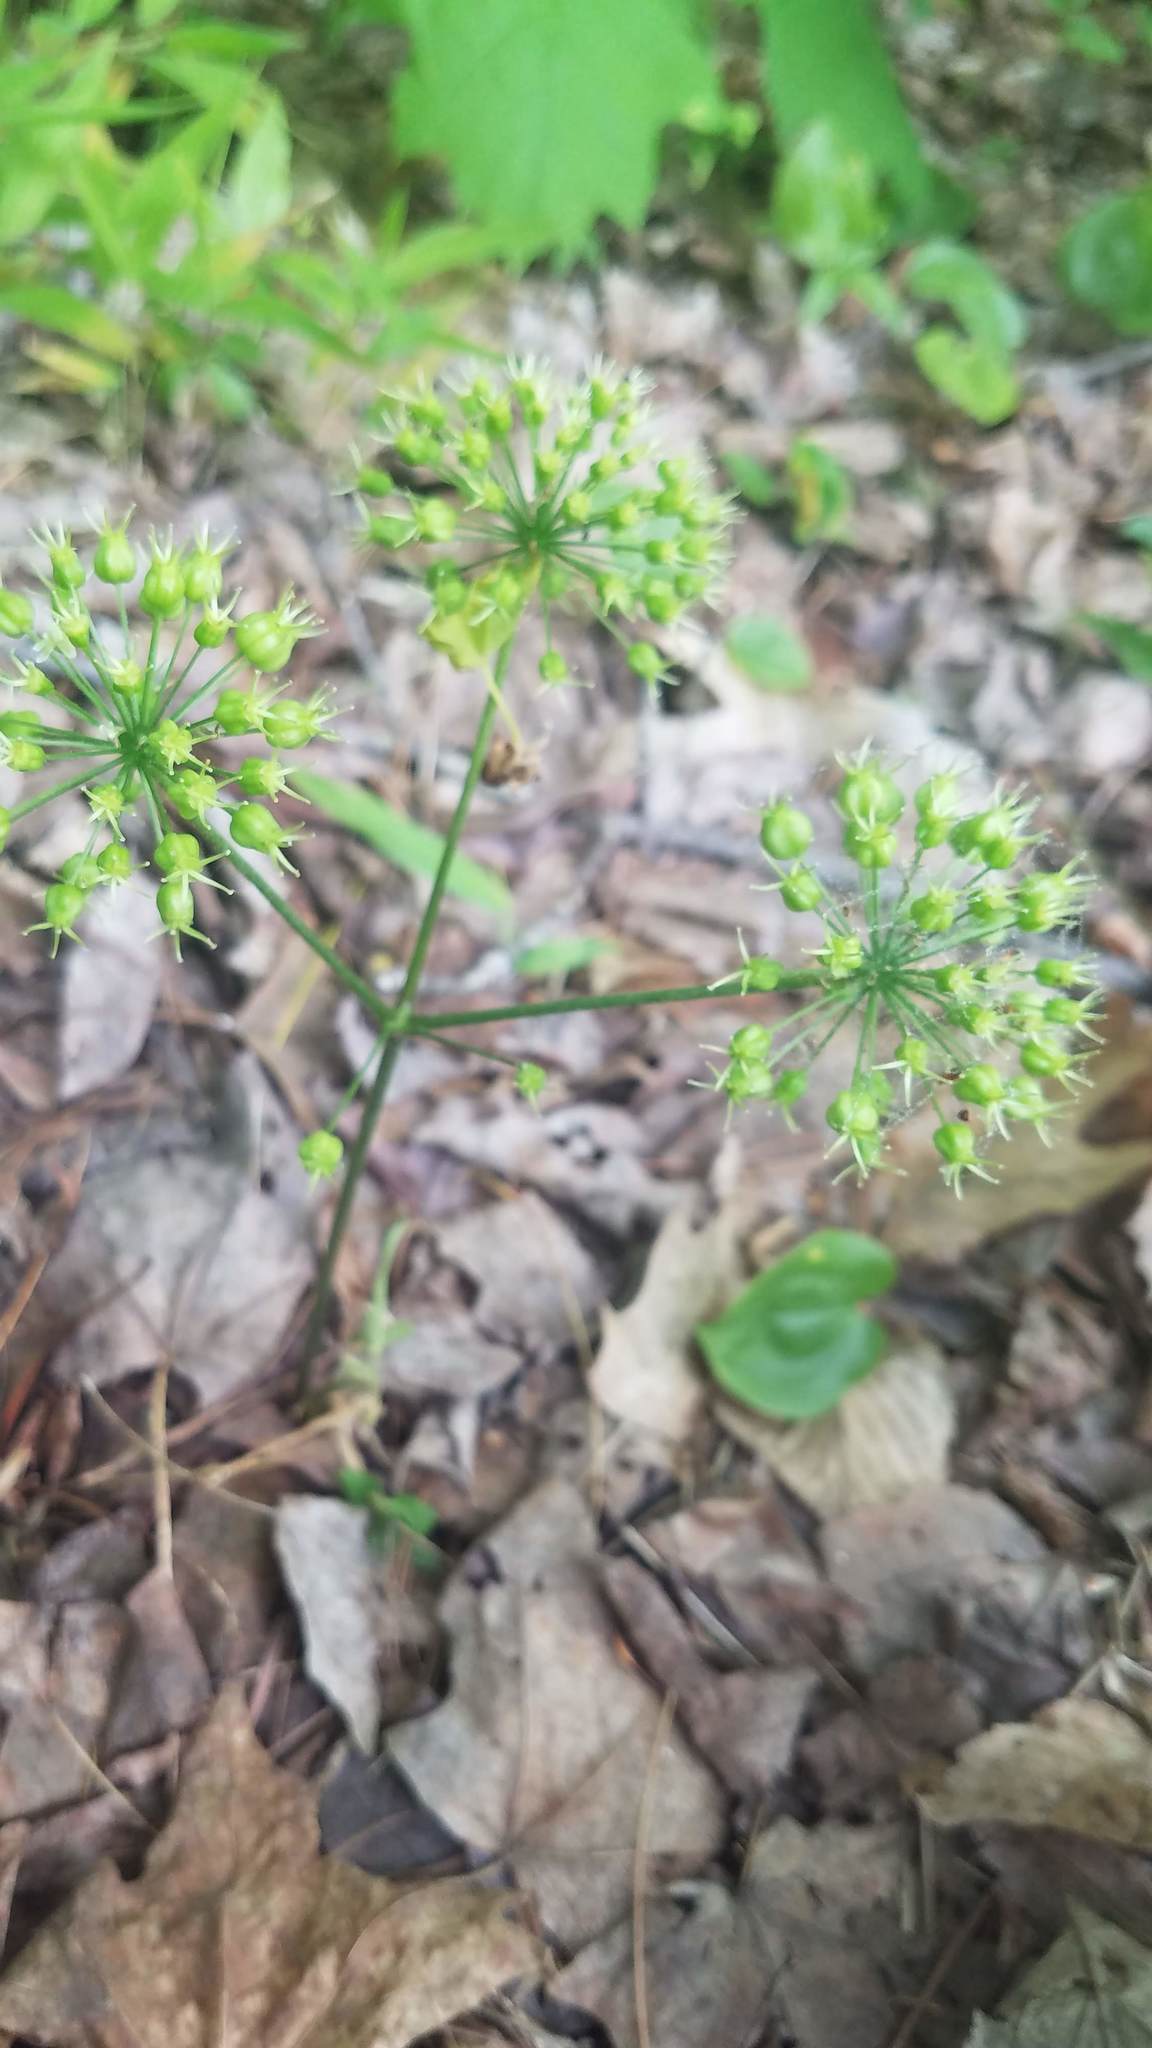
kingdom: Plantae
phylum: Tracheophyta
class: Magnoliopsida
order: Apiales
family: Araliaceae
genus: Aralia
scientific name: Aralia nudicaulis
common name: Wild sarsaparilla
